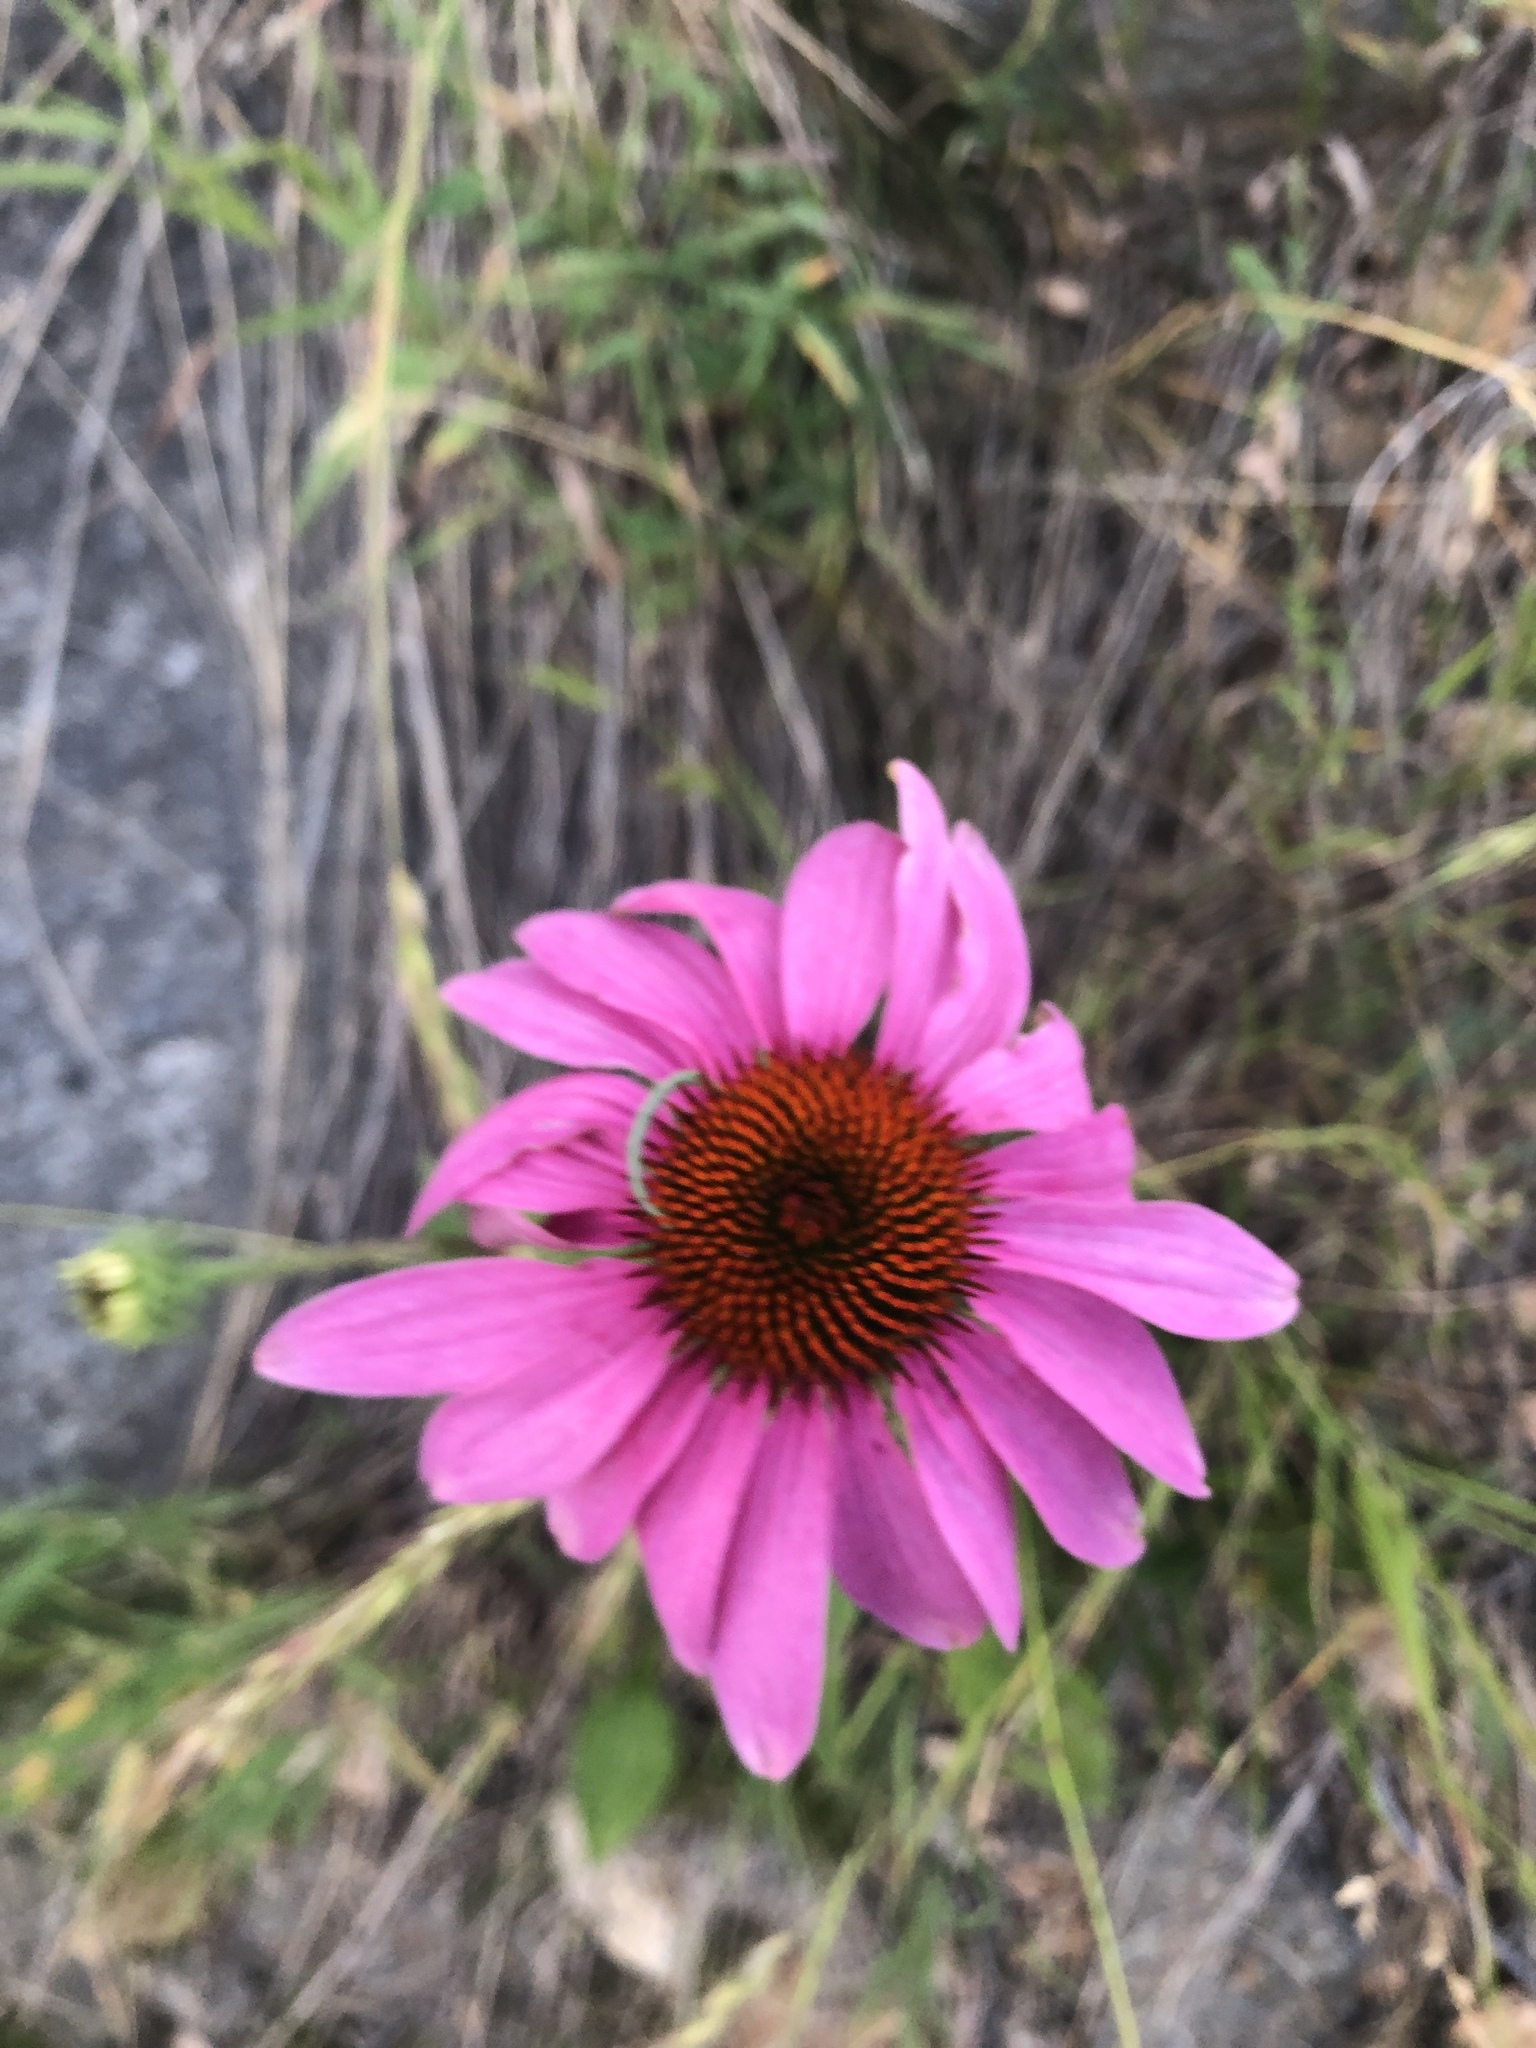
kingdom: Plantae
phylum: Tracheophyta
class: Magnoliopsida
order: Asterales
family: Asteraceae
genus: Echinacea
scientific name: Echinacea purpurea
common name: Broad-leaved purple coneflower
